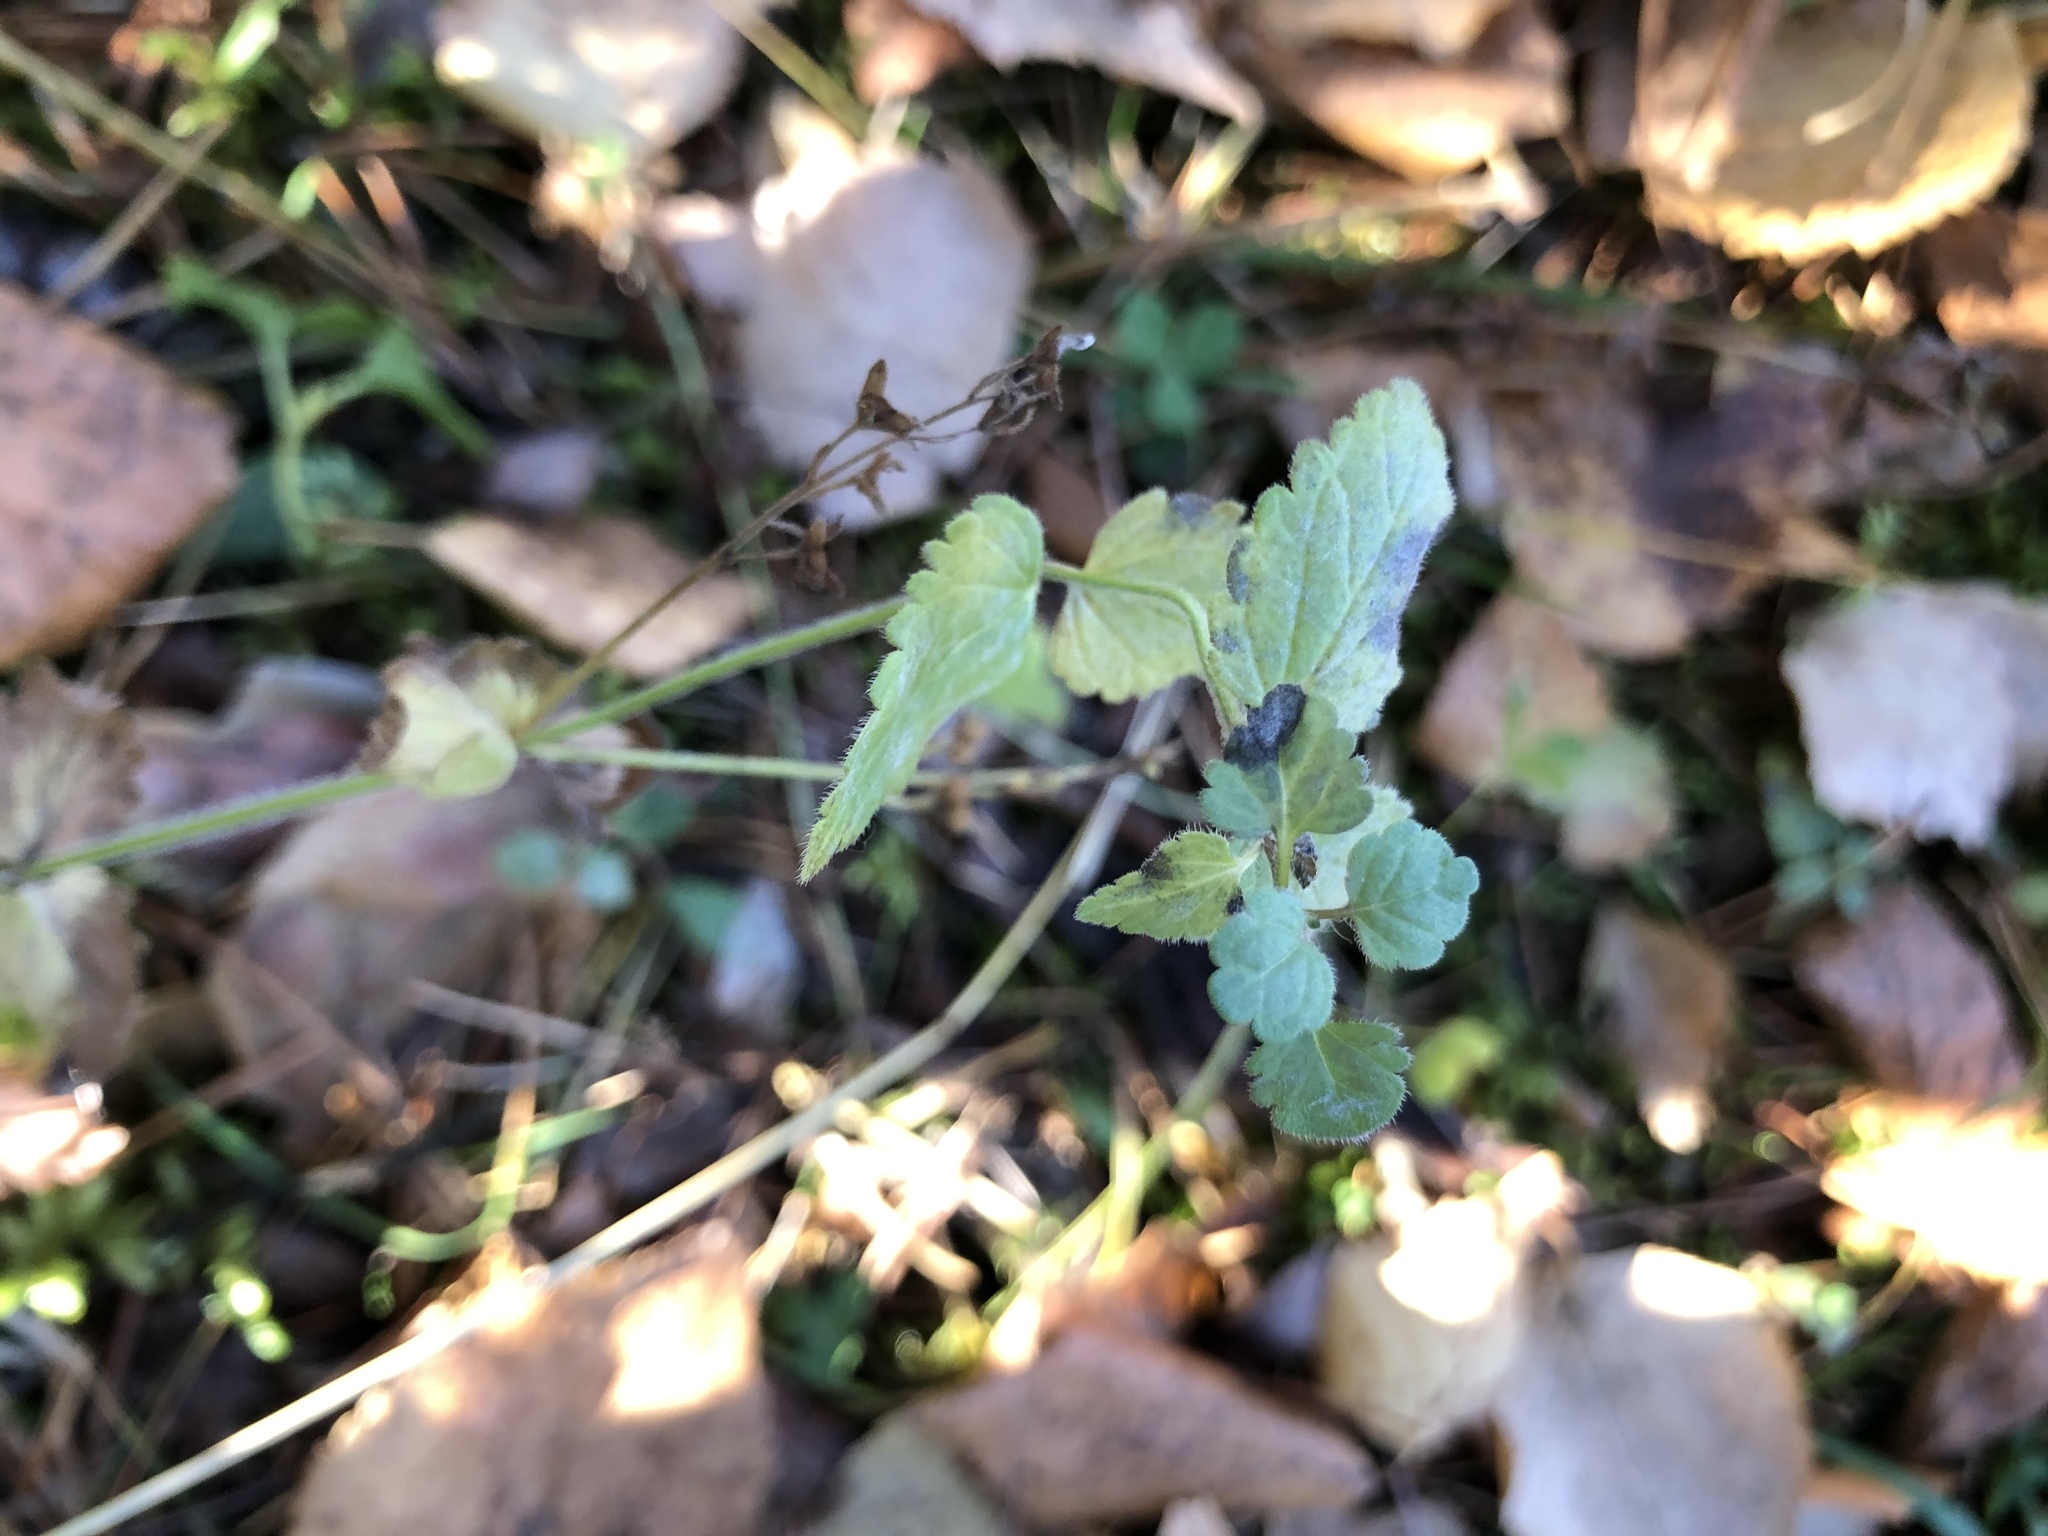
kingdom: Plantae
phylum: Tracheophyta
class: Magnoliopsida
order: Lamiales
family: Plantaginaceae
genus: Veronica
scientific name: Veronica chamaedrys
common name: Germander speedwell
